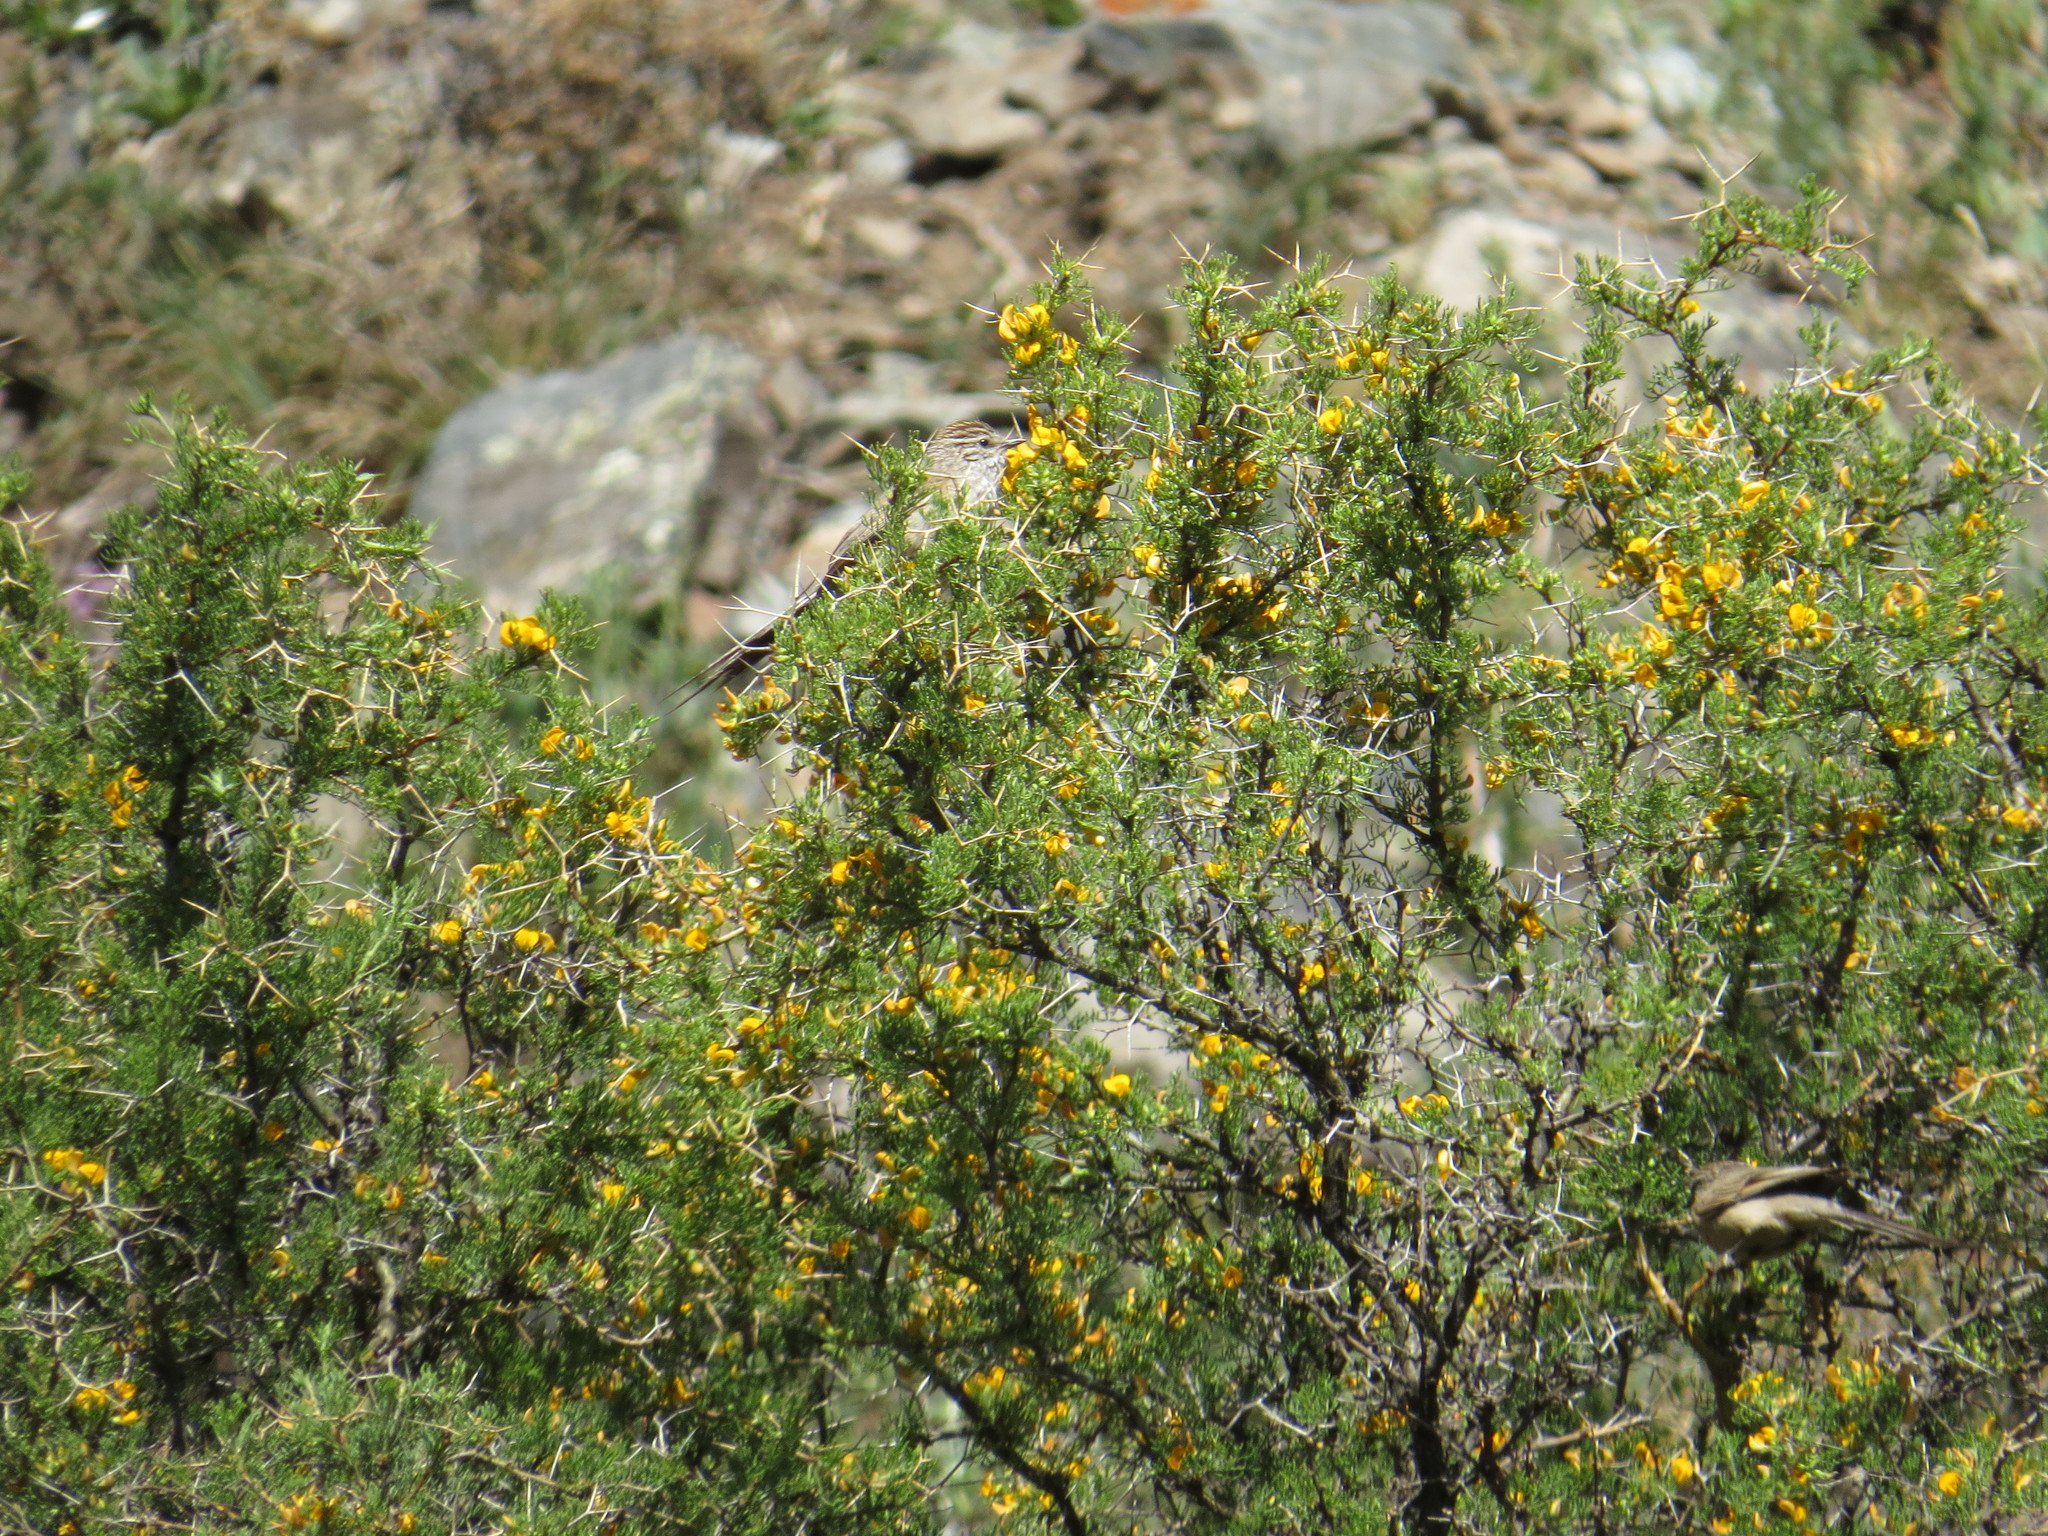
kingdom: Animalia
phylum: Chordata
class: Aves
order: Passeriformes
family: Furnariidae
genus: Leptasthenura
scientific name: Leptasthenura aegithaloides
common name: Plain-mantled tit-spinetail
